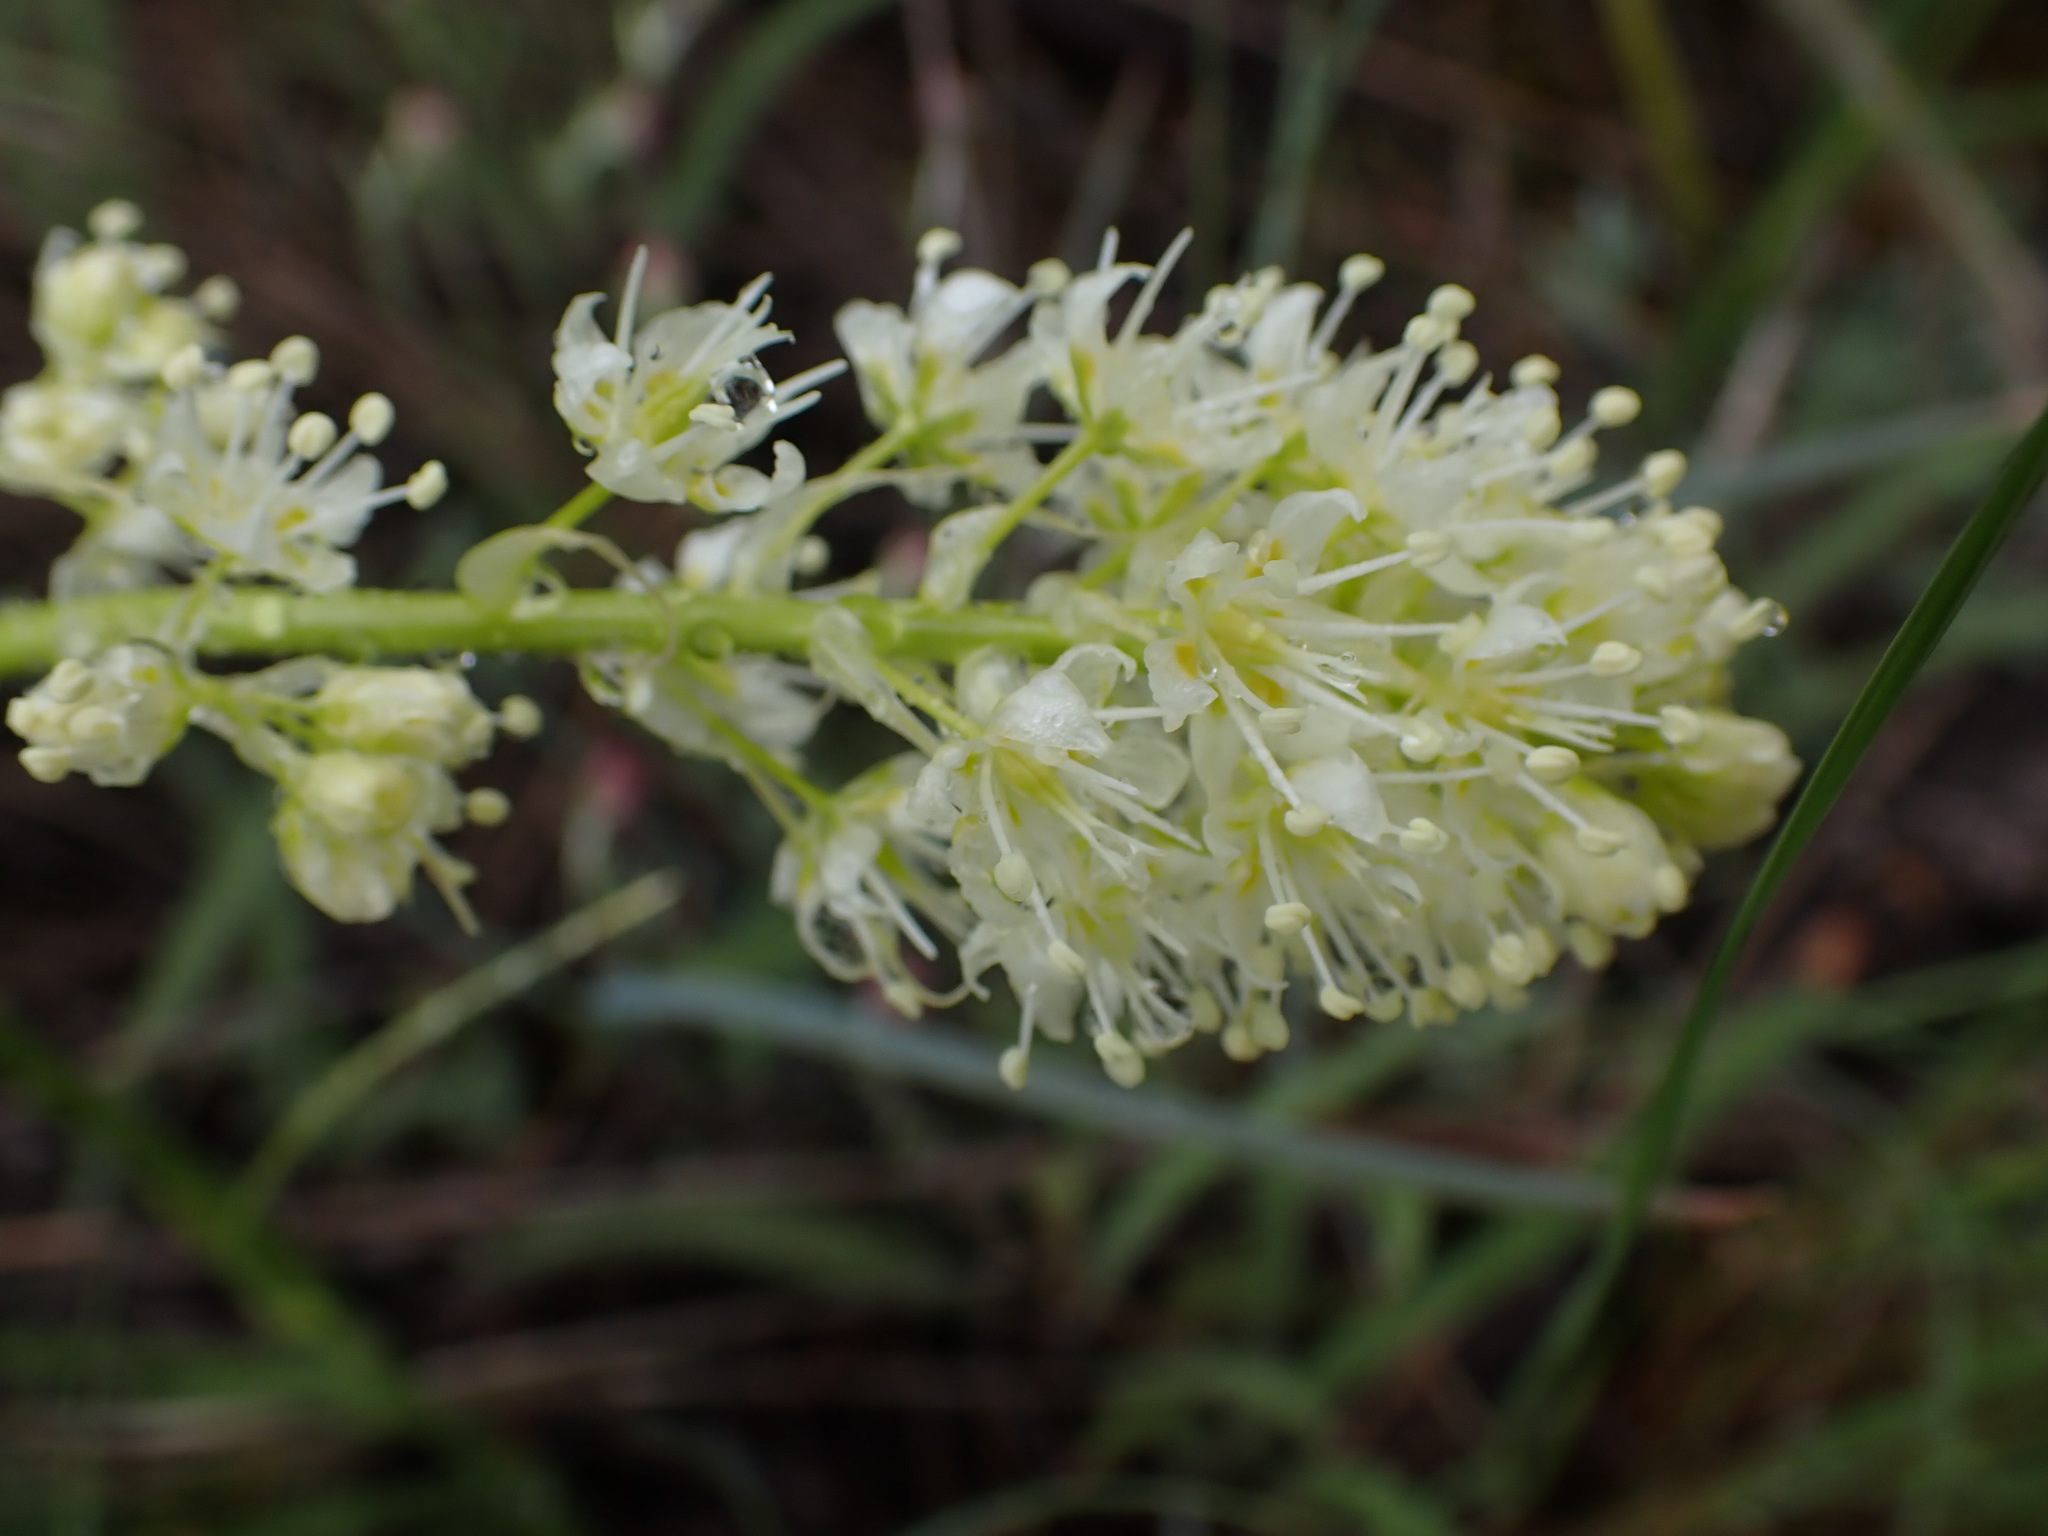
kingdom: Plantae
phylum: Tracheophyta
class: Liliopsida
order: Liliales
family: Melanthiaceae
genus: Toxicoscordion
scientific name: Toxicoscordion venenosum
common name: Meadow death camas
